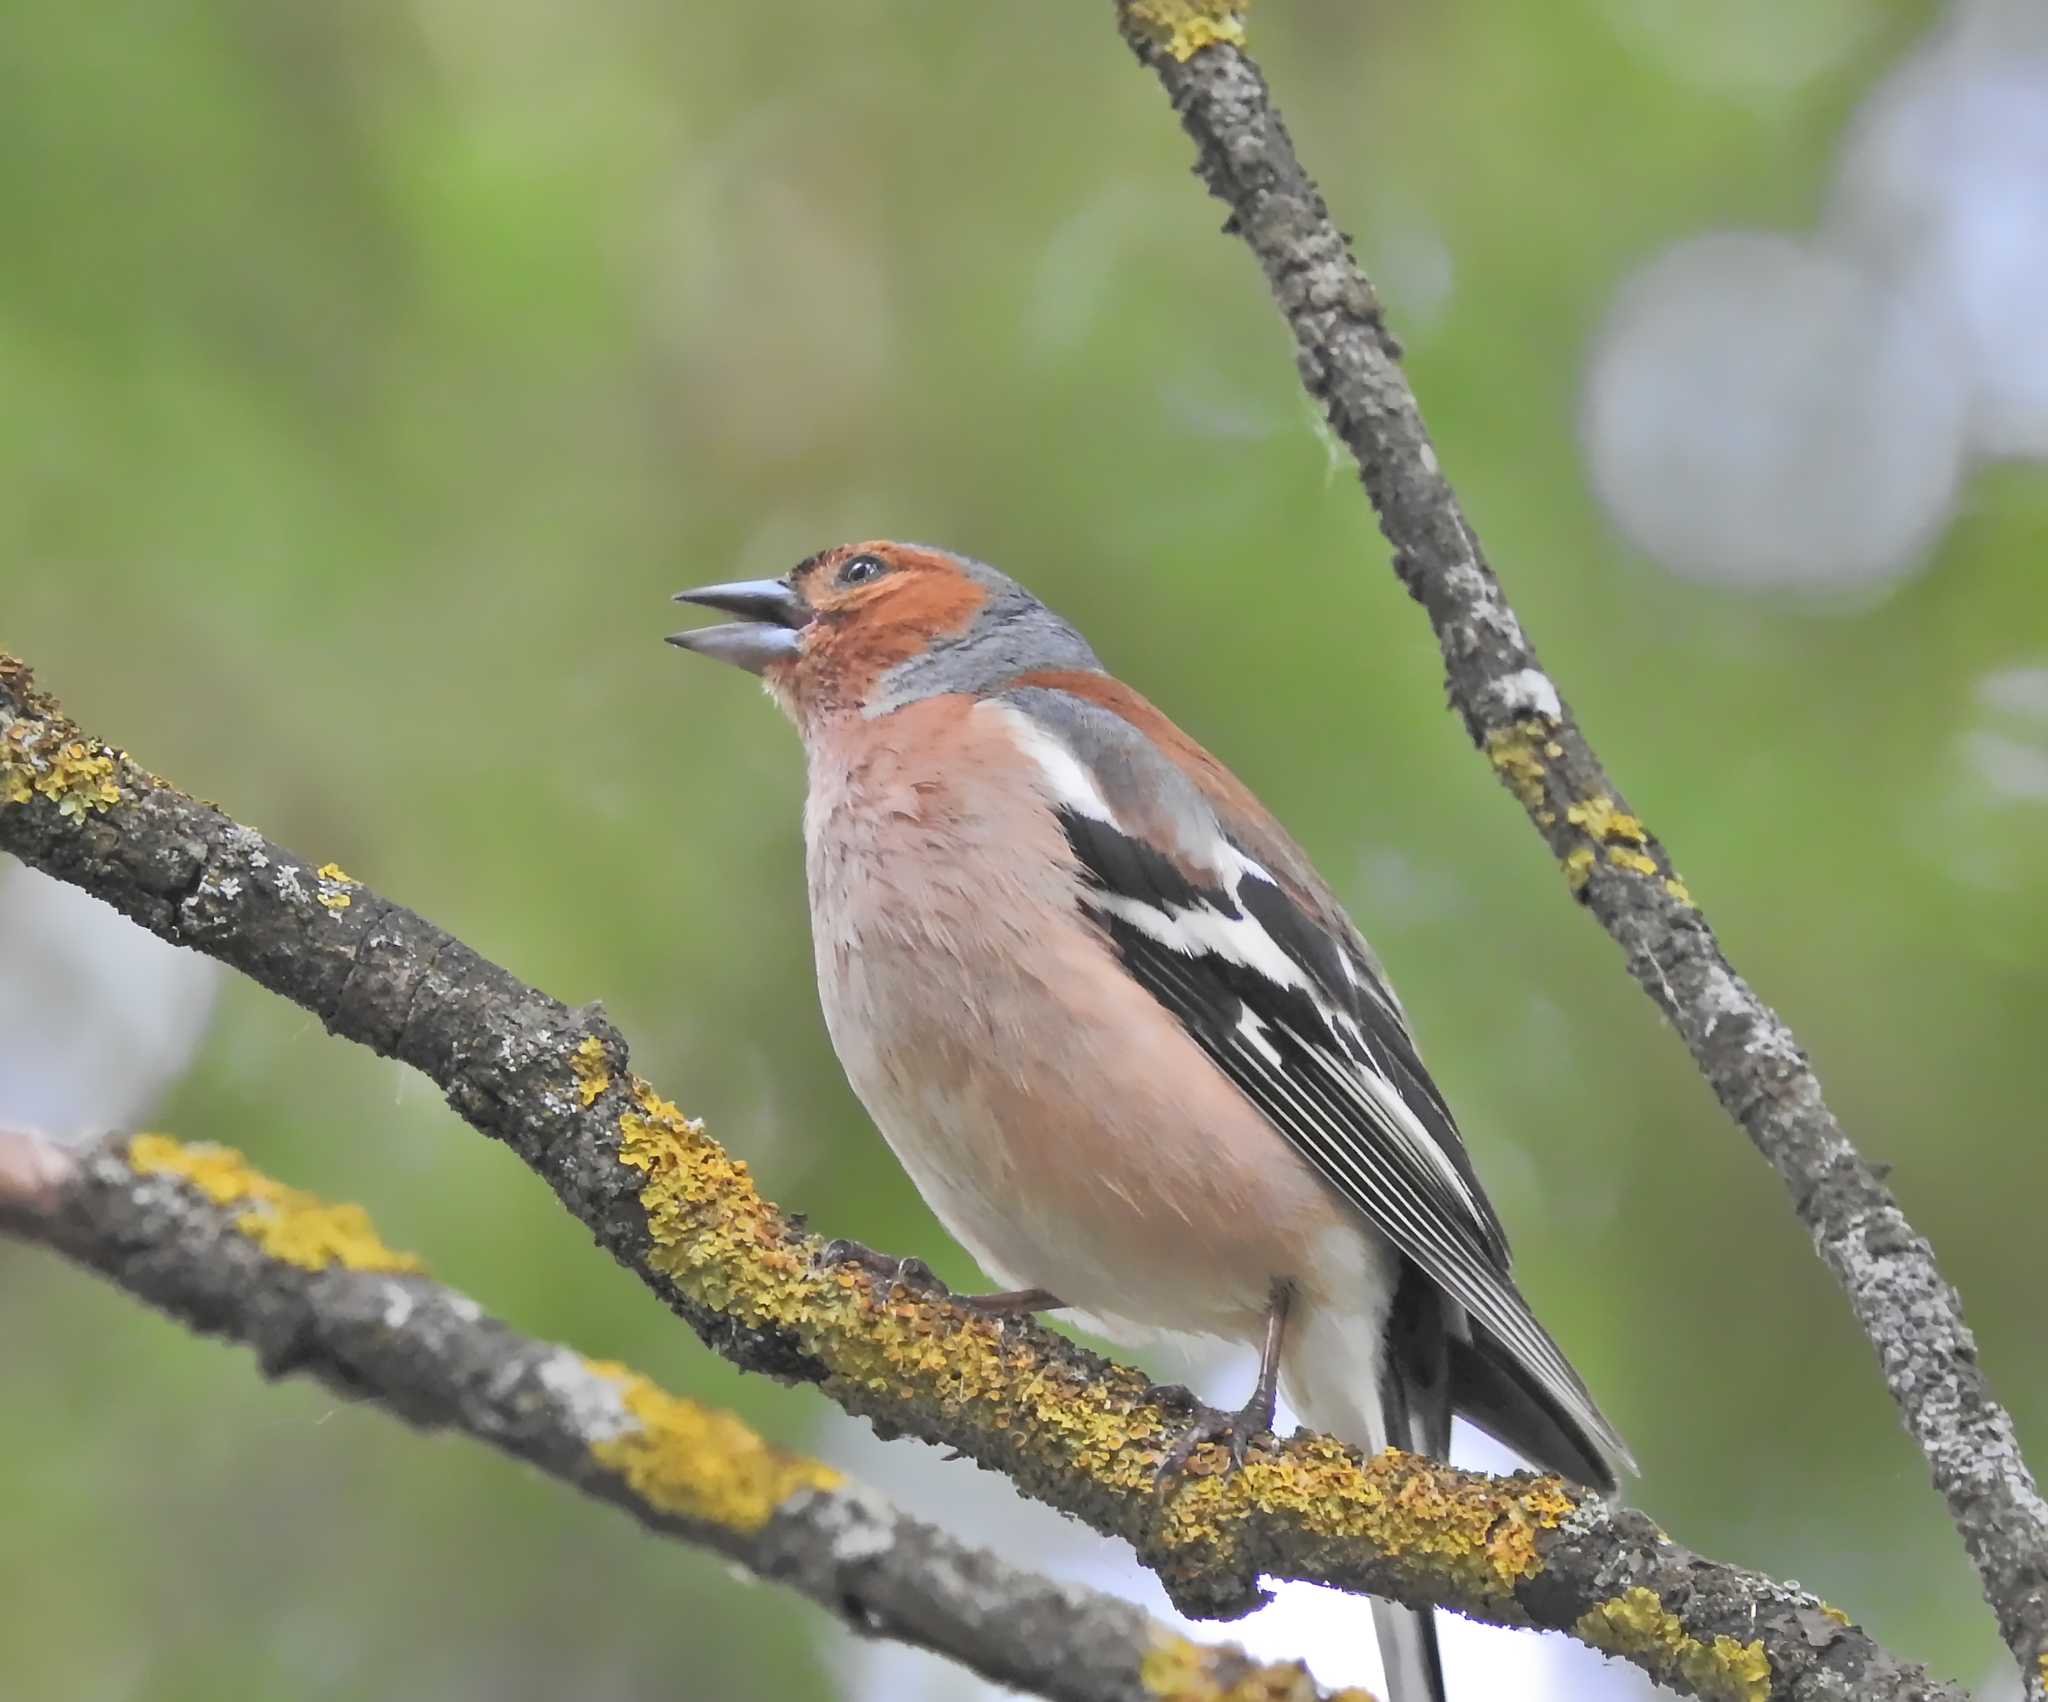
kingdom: Animalia
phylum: Chordata
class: Aves
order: Passeriformes
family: Fringillidae
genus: Fringilla
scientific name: Fringilla coelebs
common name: Common chaffinch
